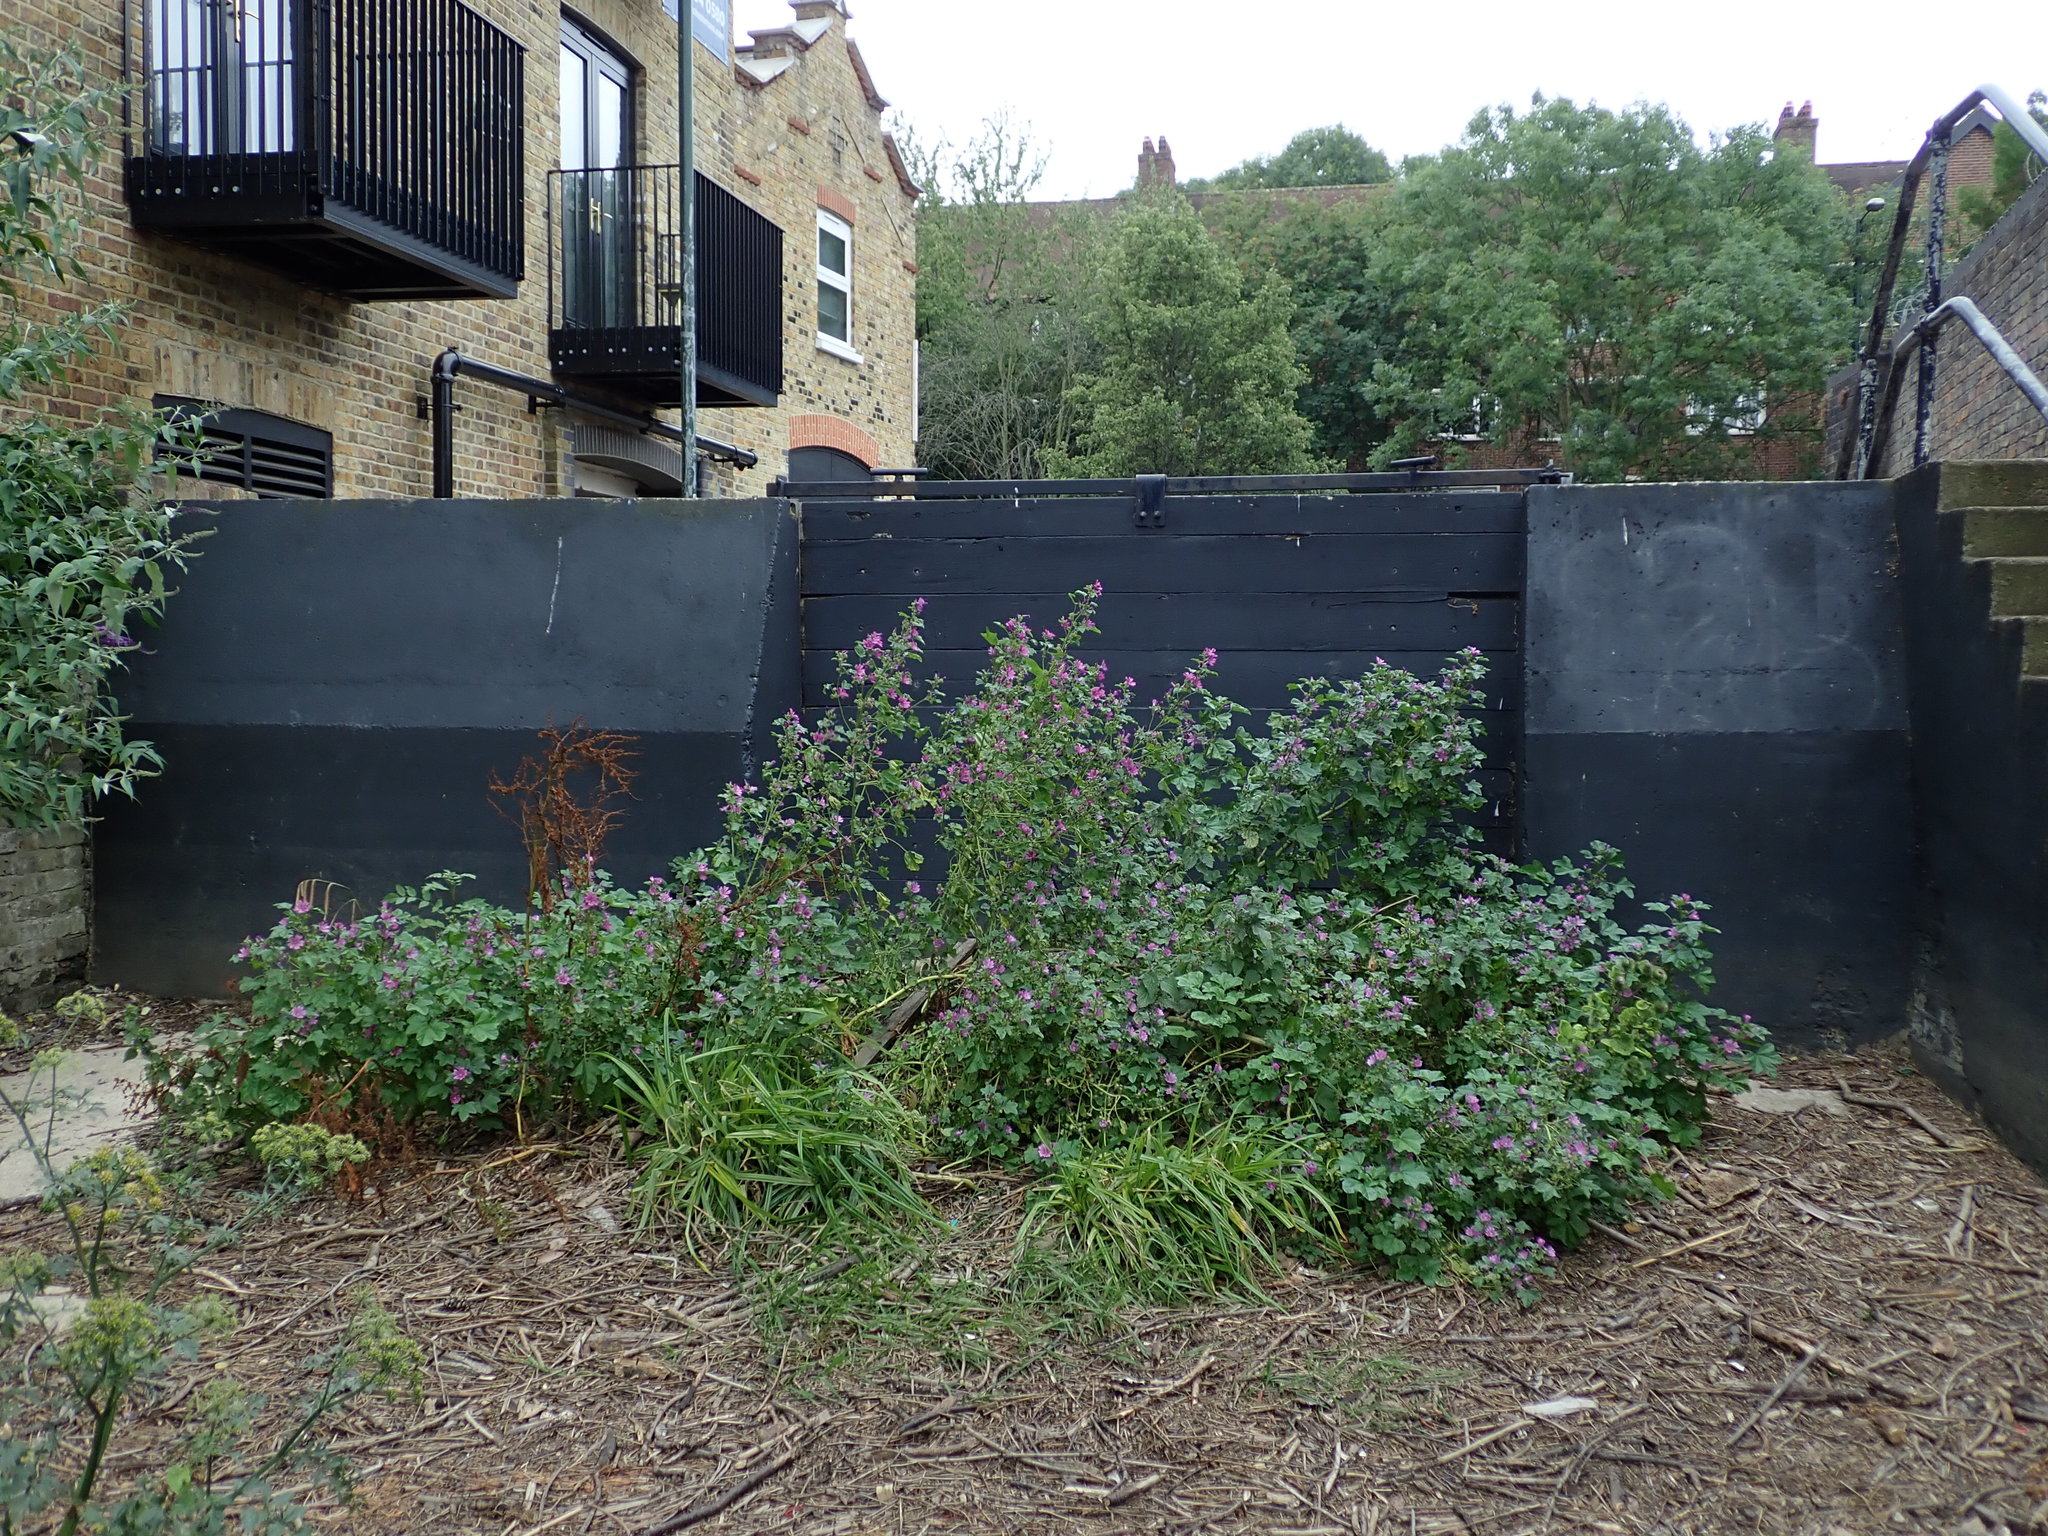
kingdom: Plantae
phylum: Tracheophyta
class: Magnoliopsida
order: Malvales
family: Malvaceae
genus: Malva
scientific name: Malva sylvestris
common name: Common mallow
